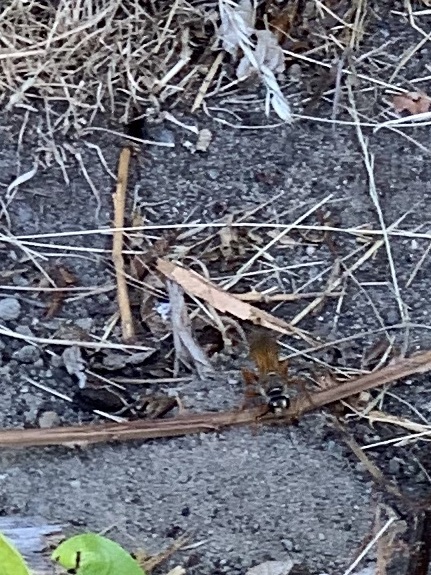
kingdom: Animalia
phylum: Arthropoda
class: Insecta
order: Hymenoptera
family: Sphecidae
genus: Sphex
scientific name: Sphex ichneumoneus
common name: Great golden digger wasp
